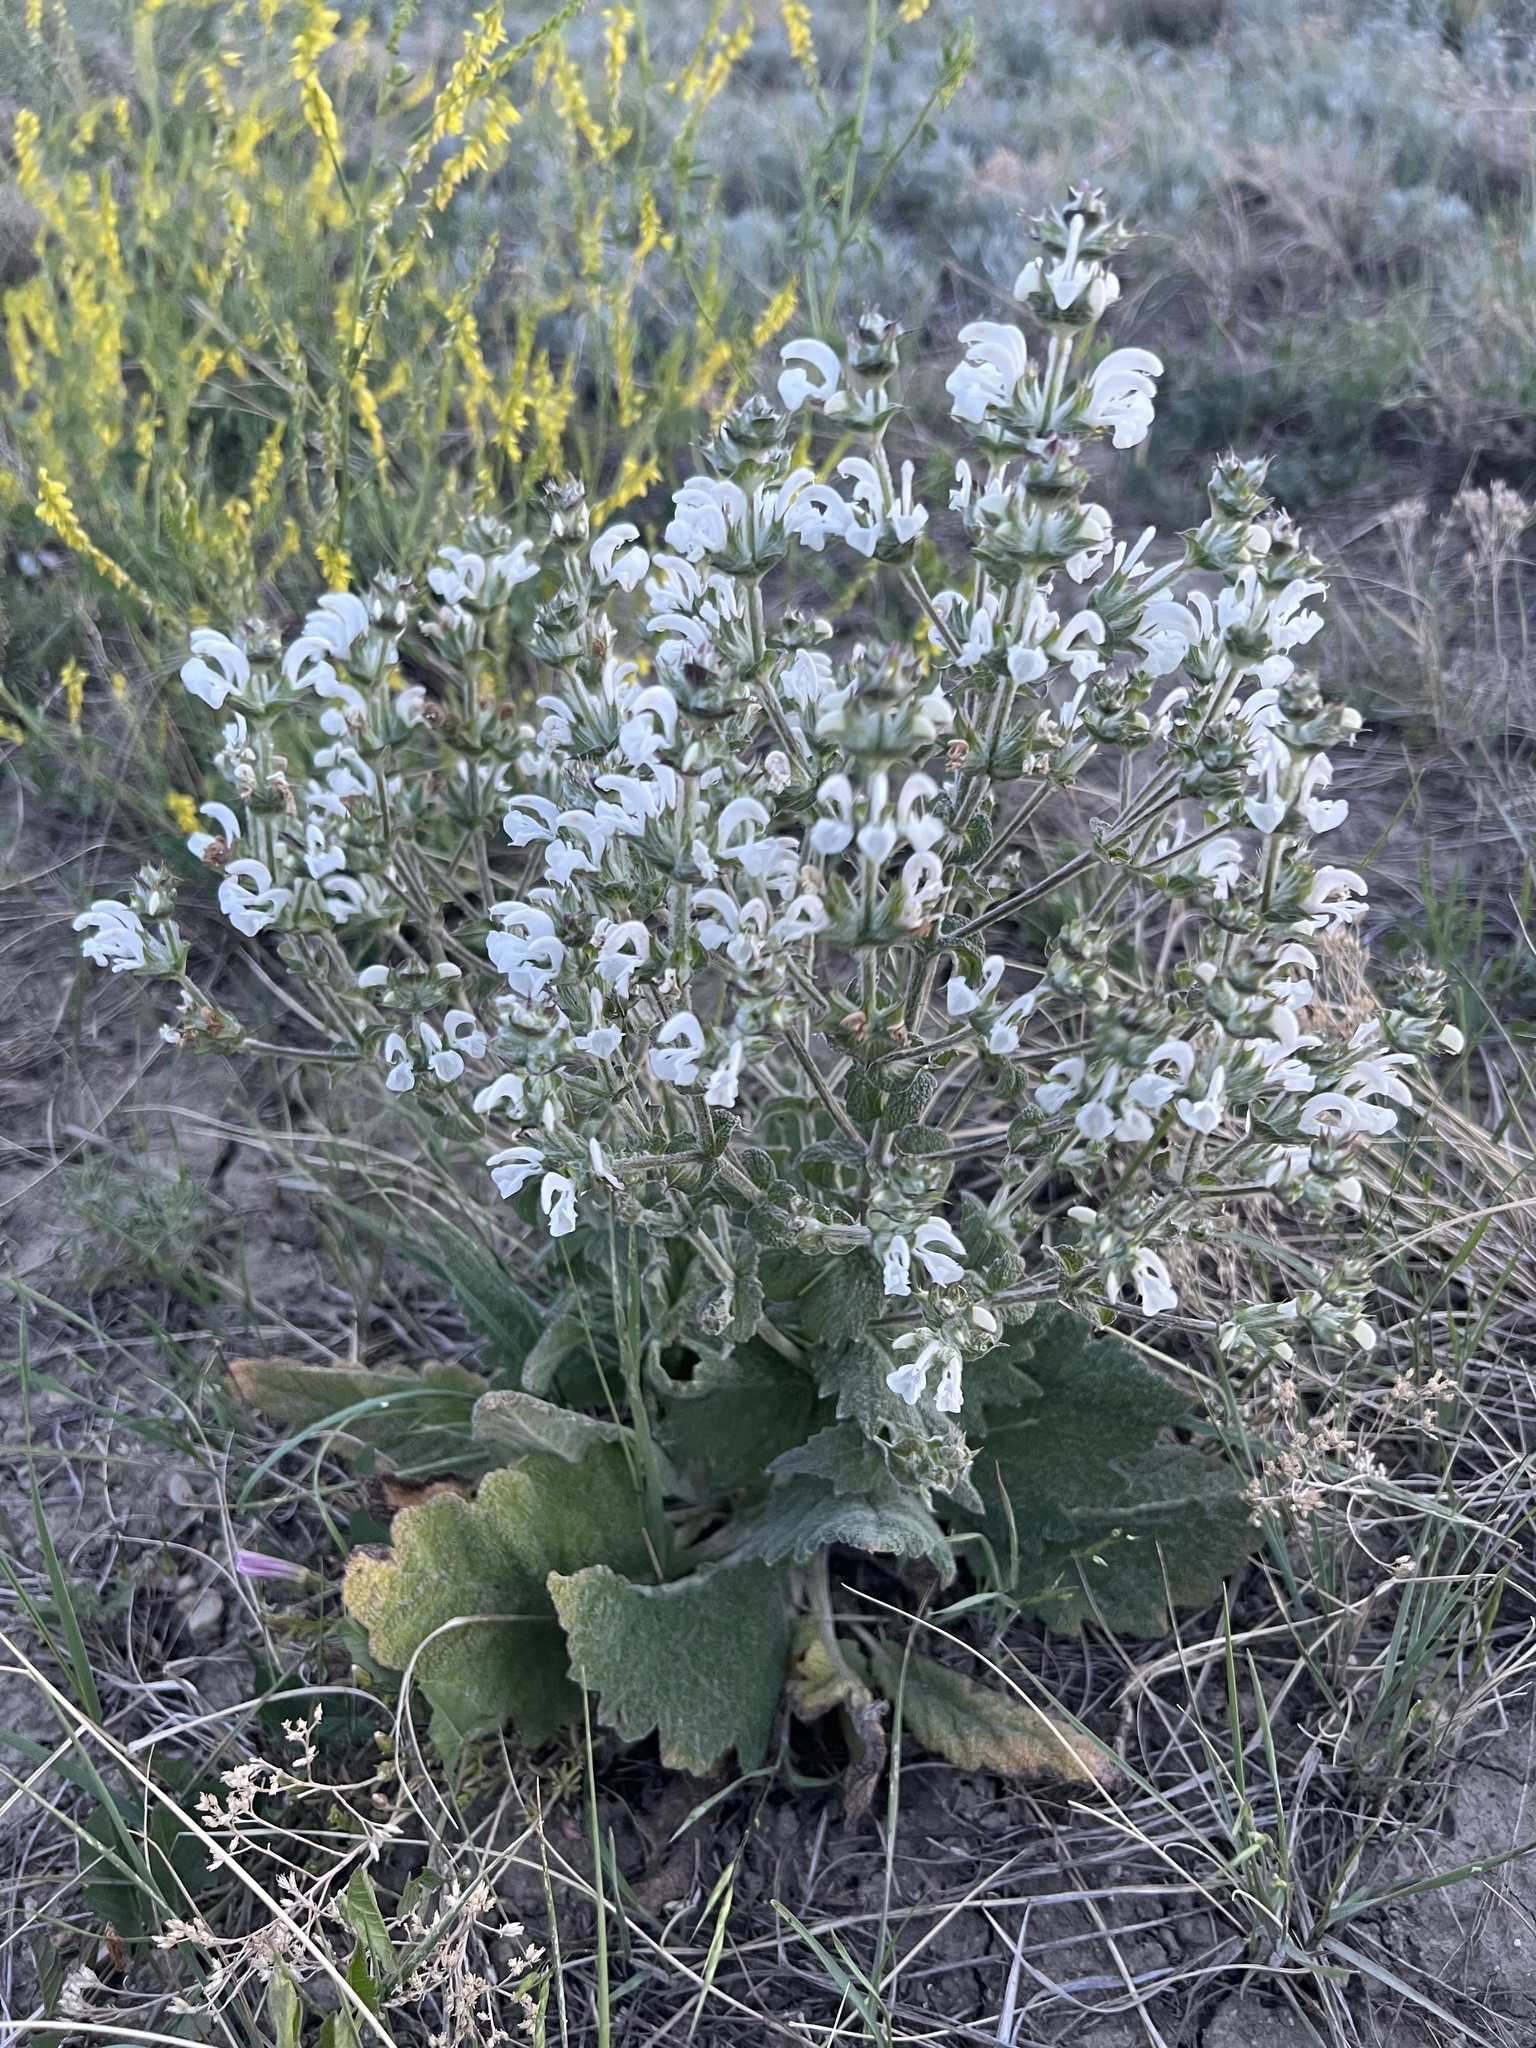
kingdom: Plantae
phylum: Tracheophyta
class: Magnoliopsida
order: Lamiales
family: Lamiaceae
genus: Salvia
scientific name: Salvia aethiopis
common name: Mediterranean sage
